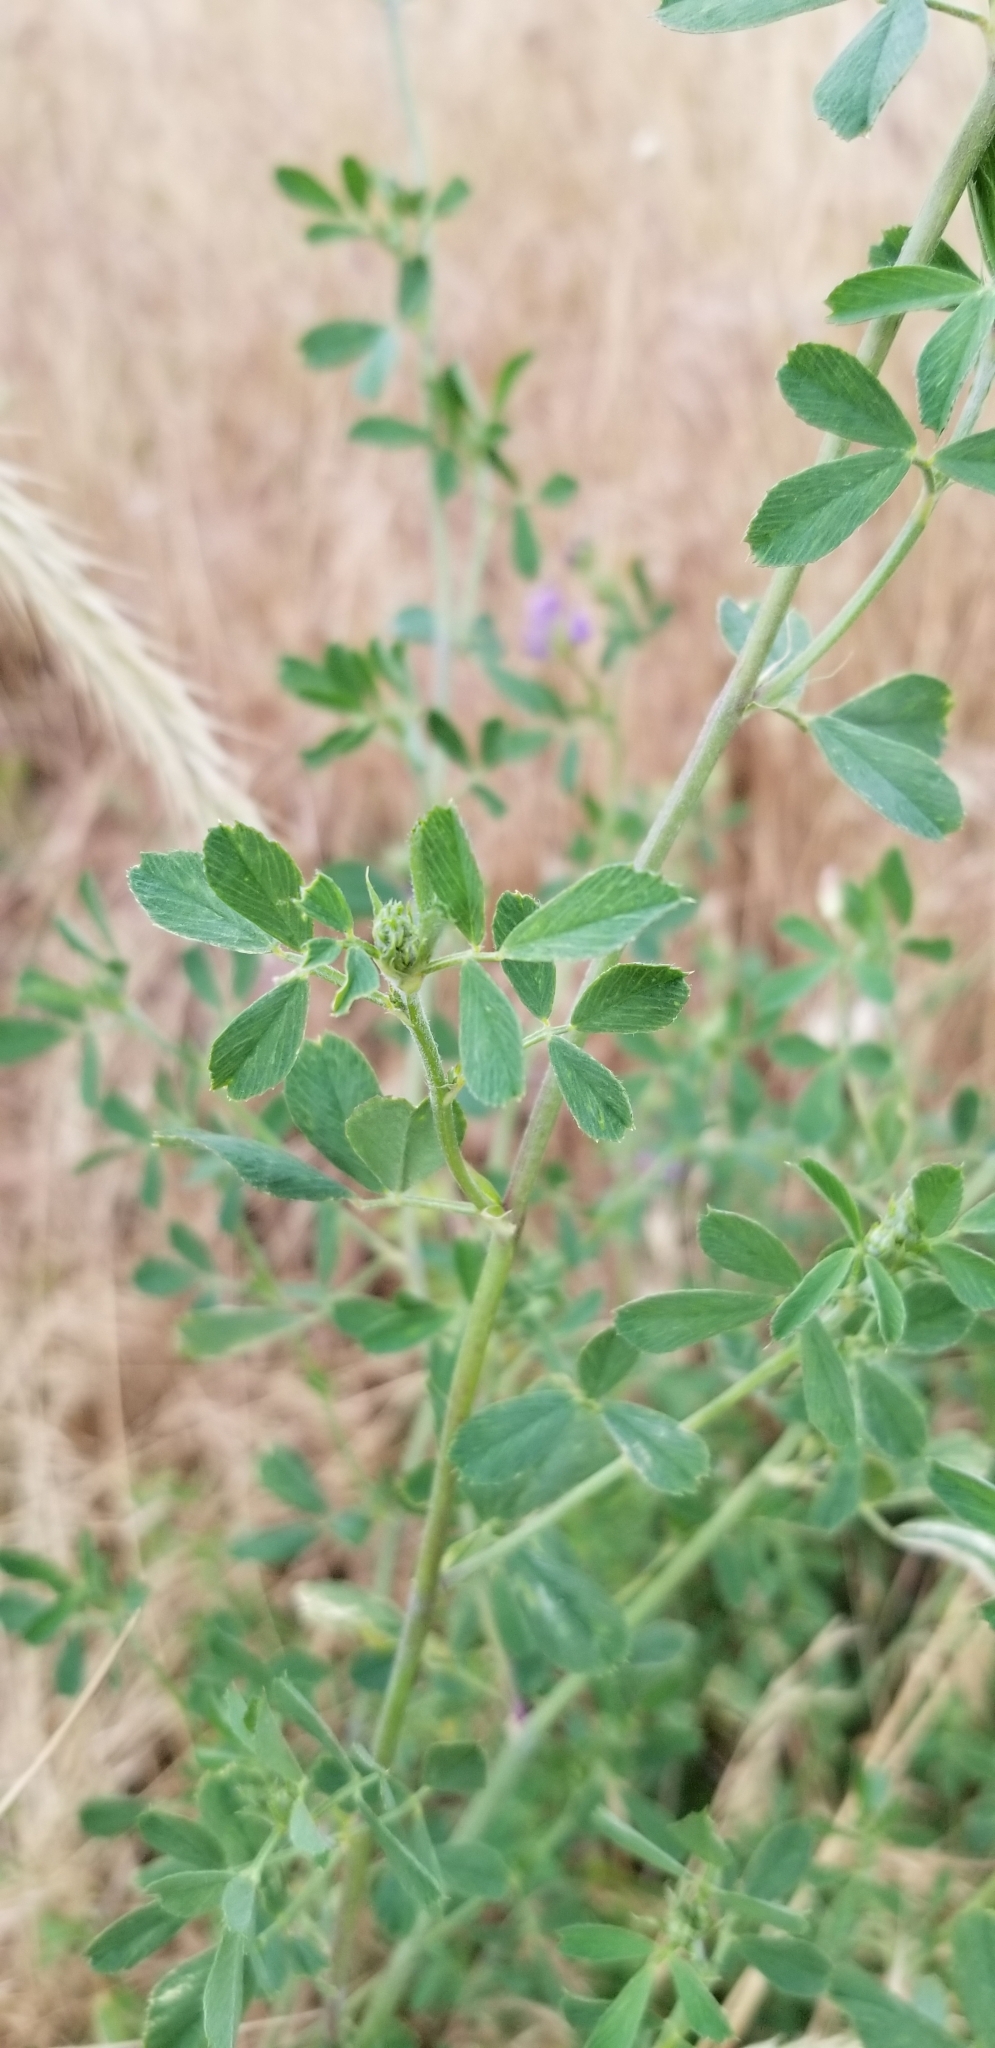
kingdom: Plantae
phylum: Tracheophyta
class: Magnoliopsida
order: Fabales
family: Fabaceae
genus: Medicago
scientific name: Medicago sativa
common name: Alfalfa
